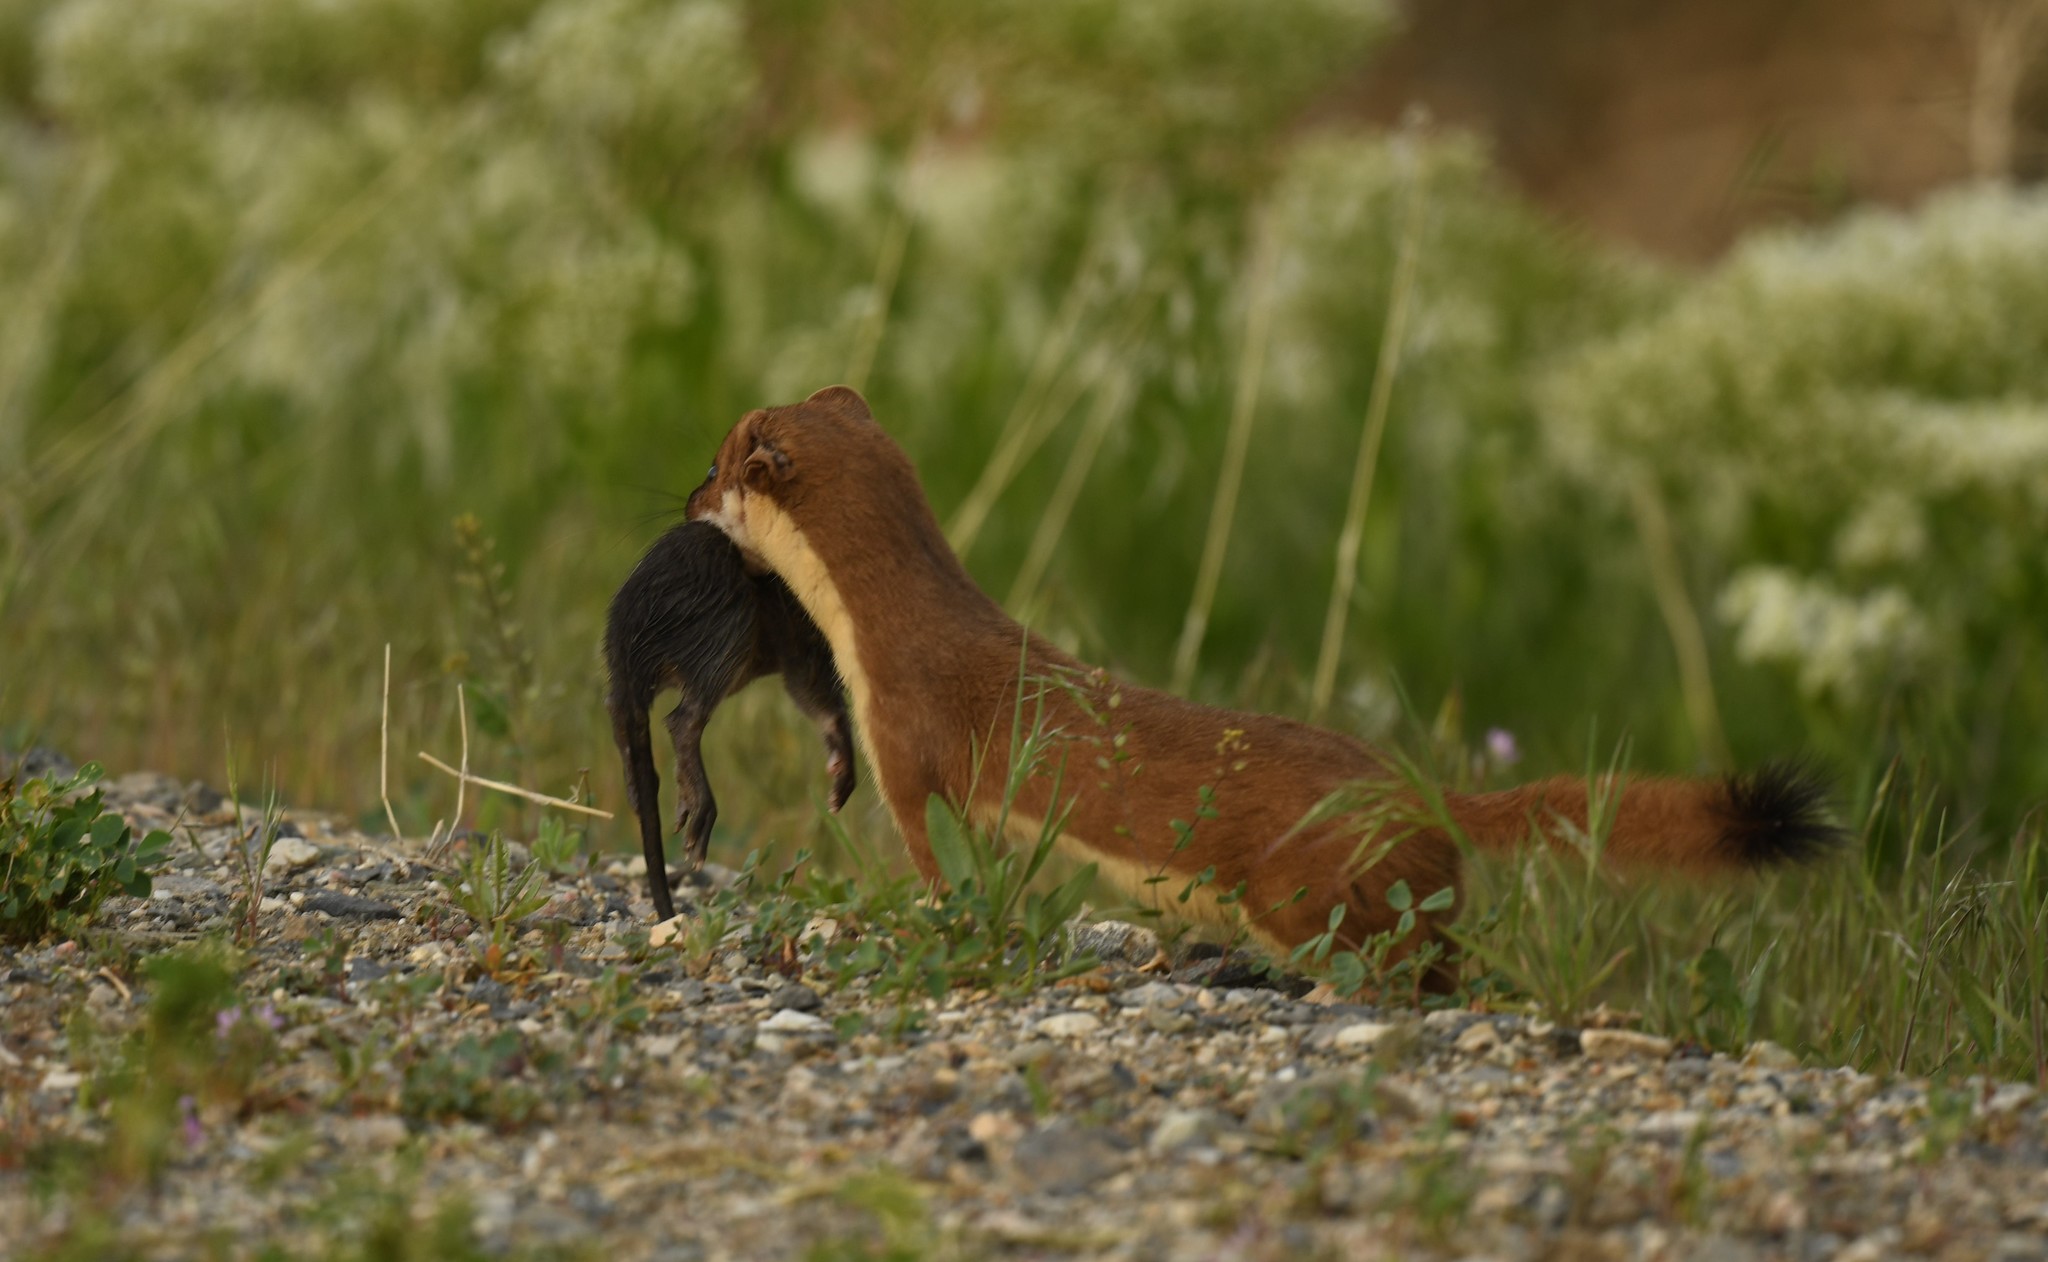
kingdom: Animalia
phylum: Chordata
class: Mammalia
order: Carnivora
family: Mustelidae
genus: Mustela
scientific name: Mustela
